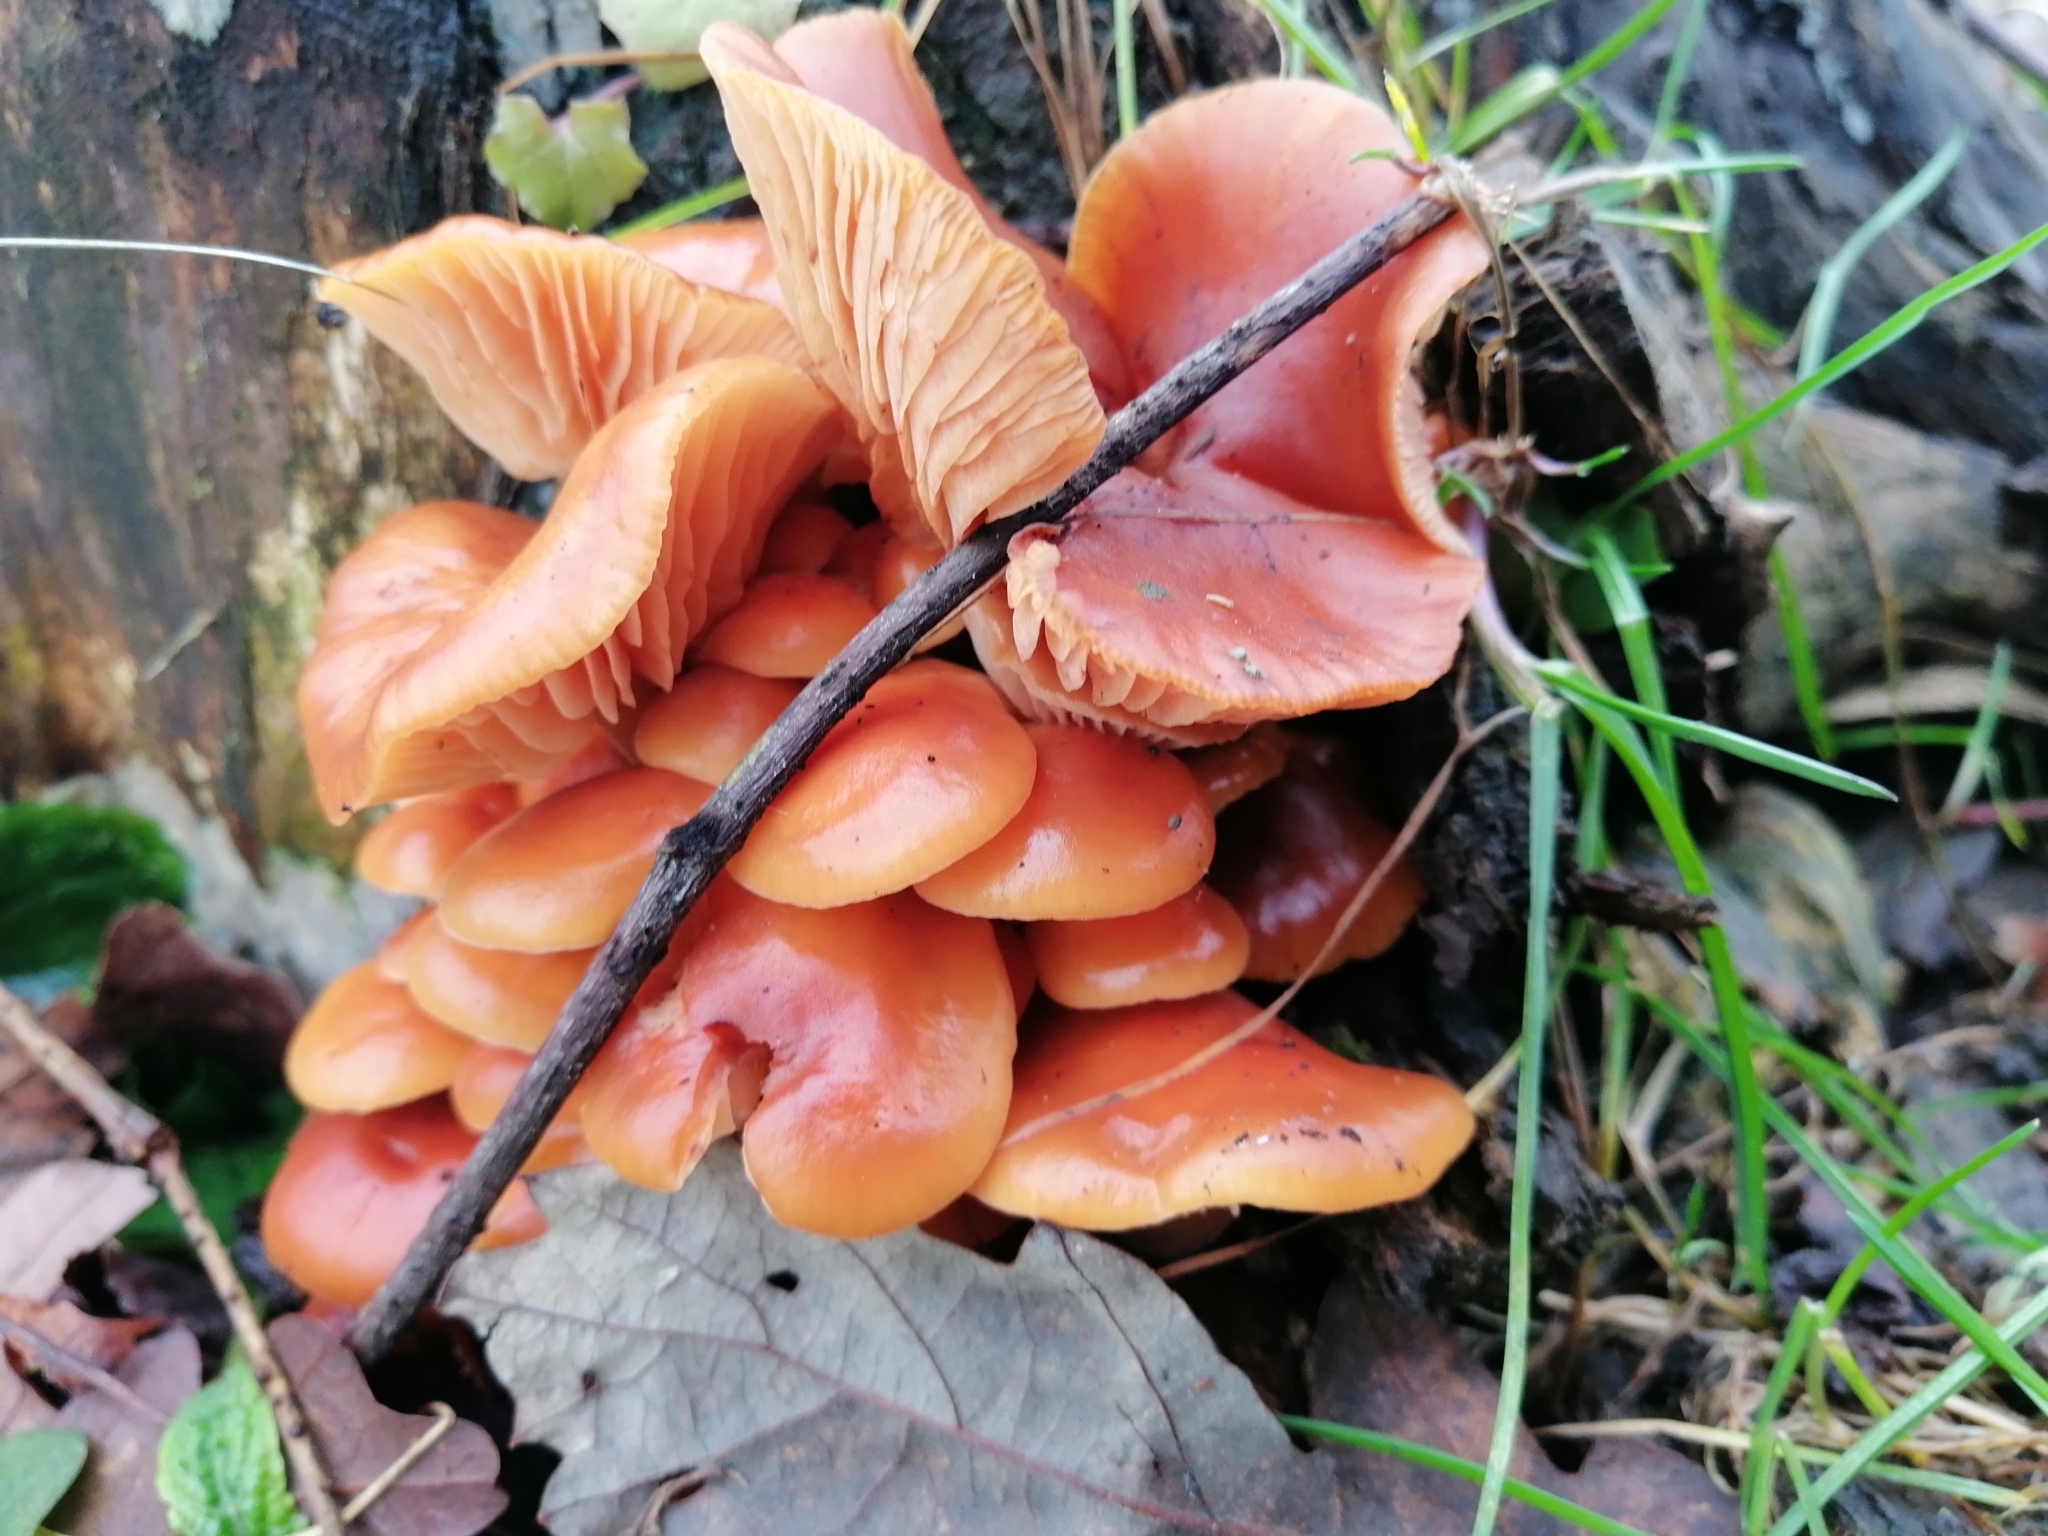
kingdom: Fungi
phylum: Basidiomycota
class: Agaricomycetes
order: Agaricales
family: Physalacriaceae
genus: Flammulina
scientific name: Flammulina
